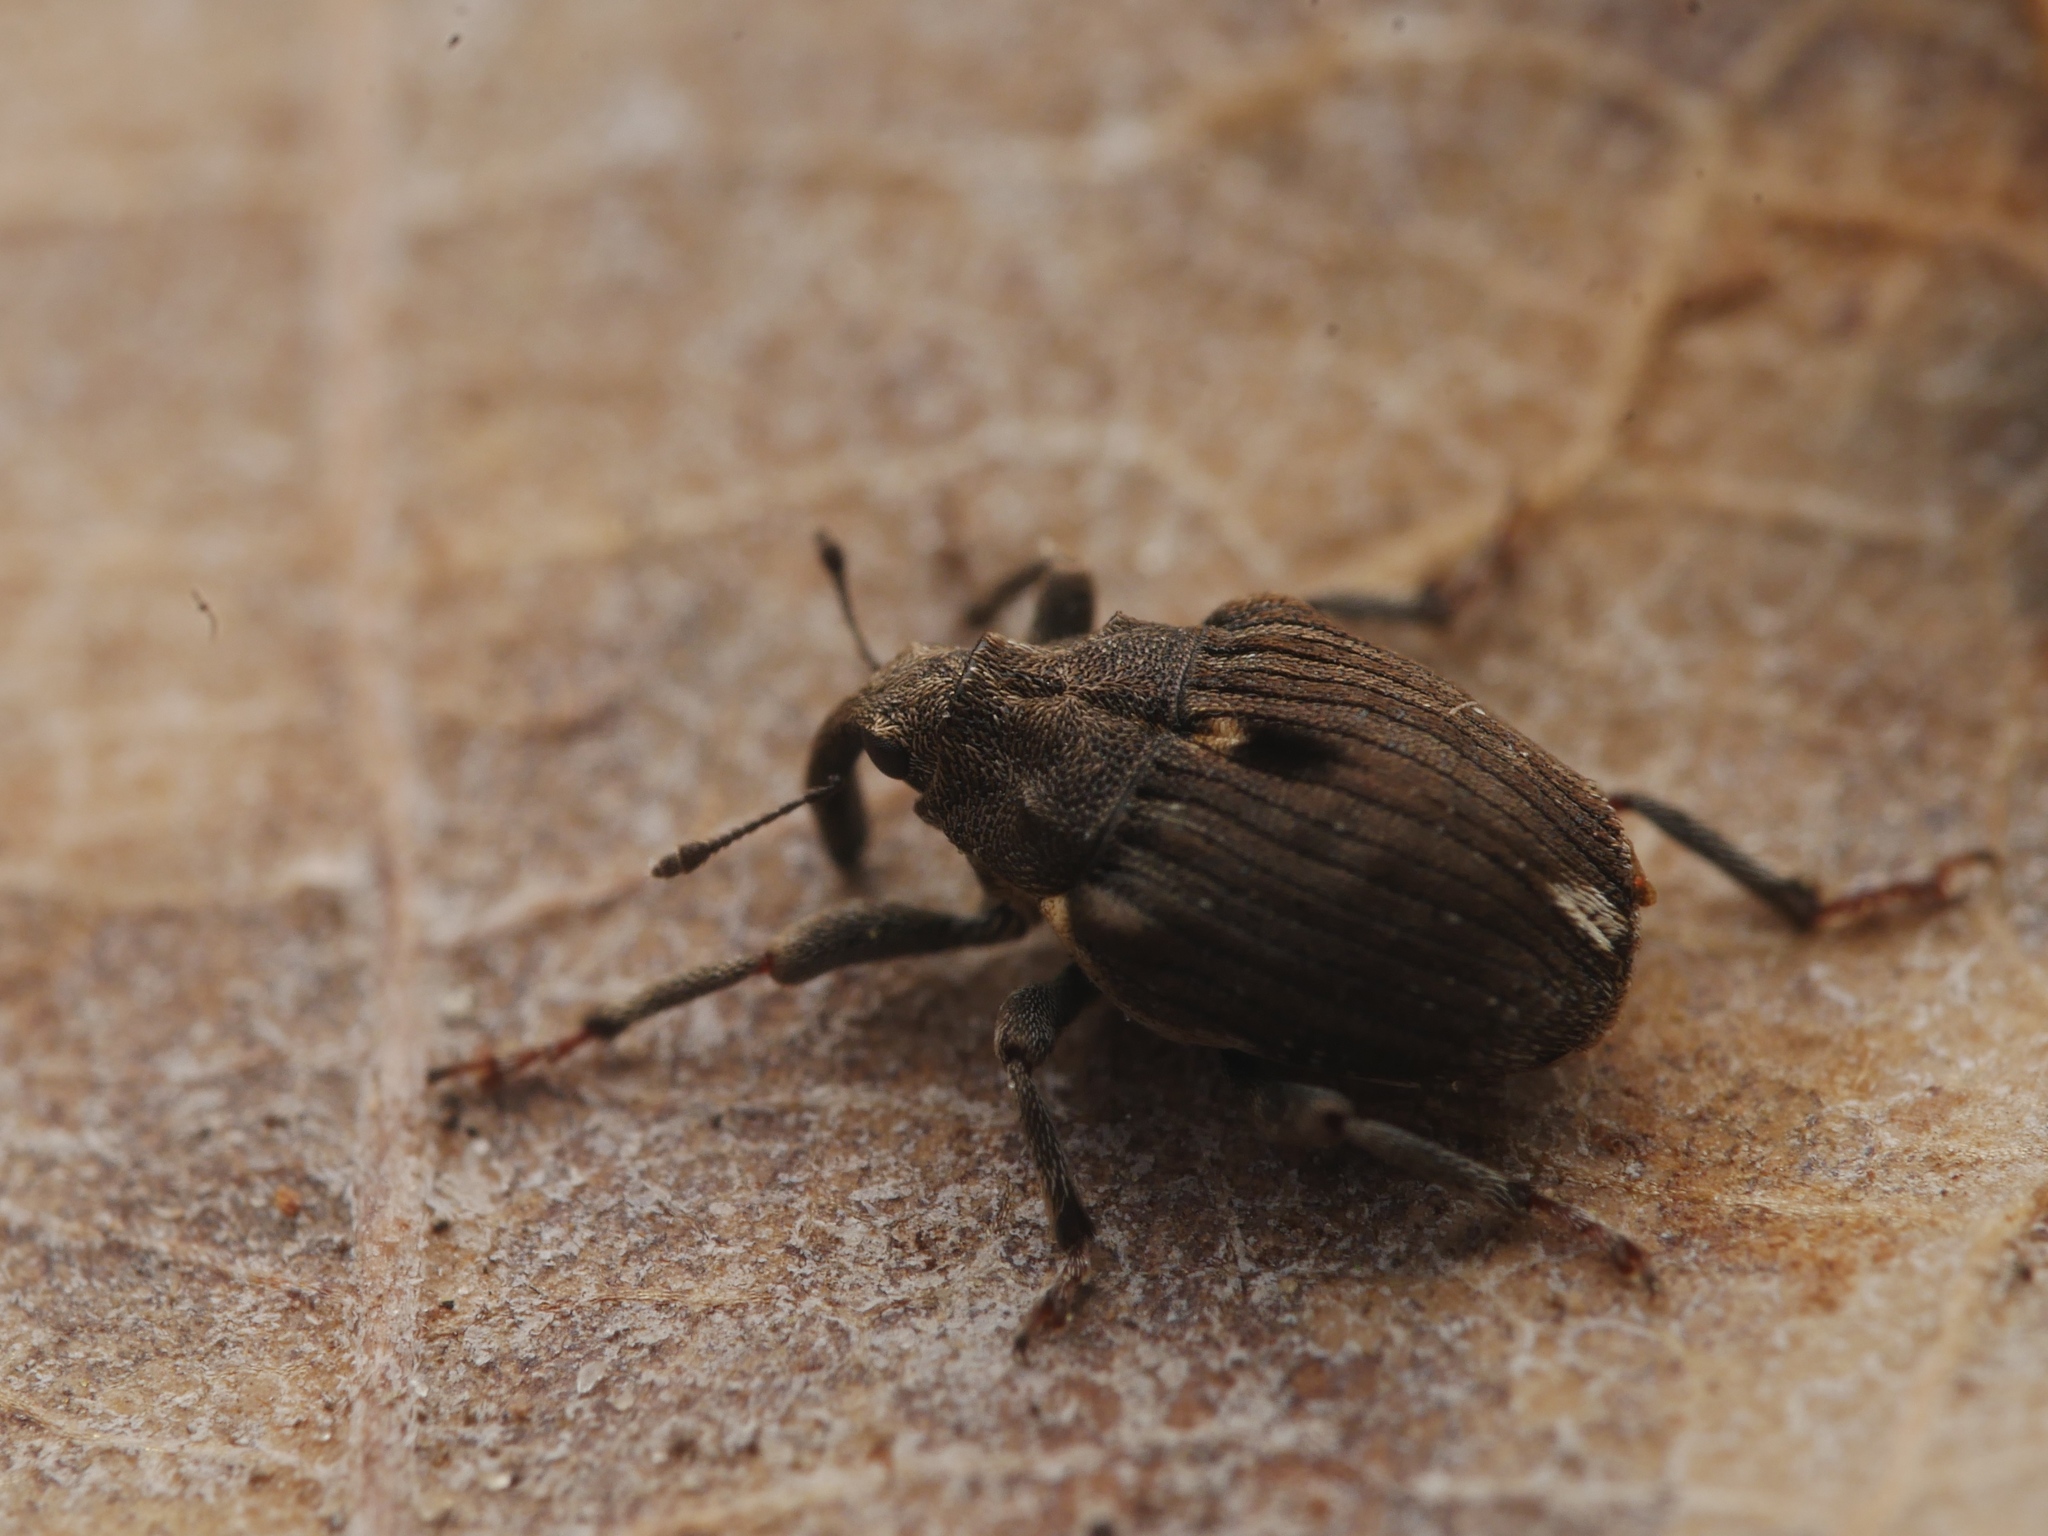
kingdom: Animalia
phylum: Arthropoda
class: Insecta
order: Coleoptera
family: Curculionidae
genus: Stenocarus
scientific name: Stenocarus ruficornis
